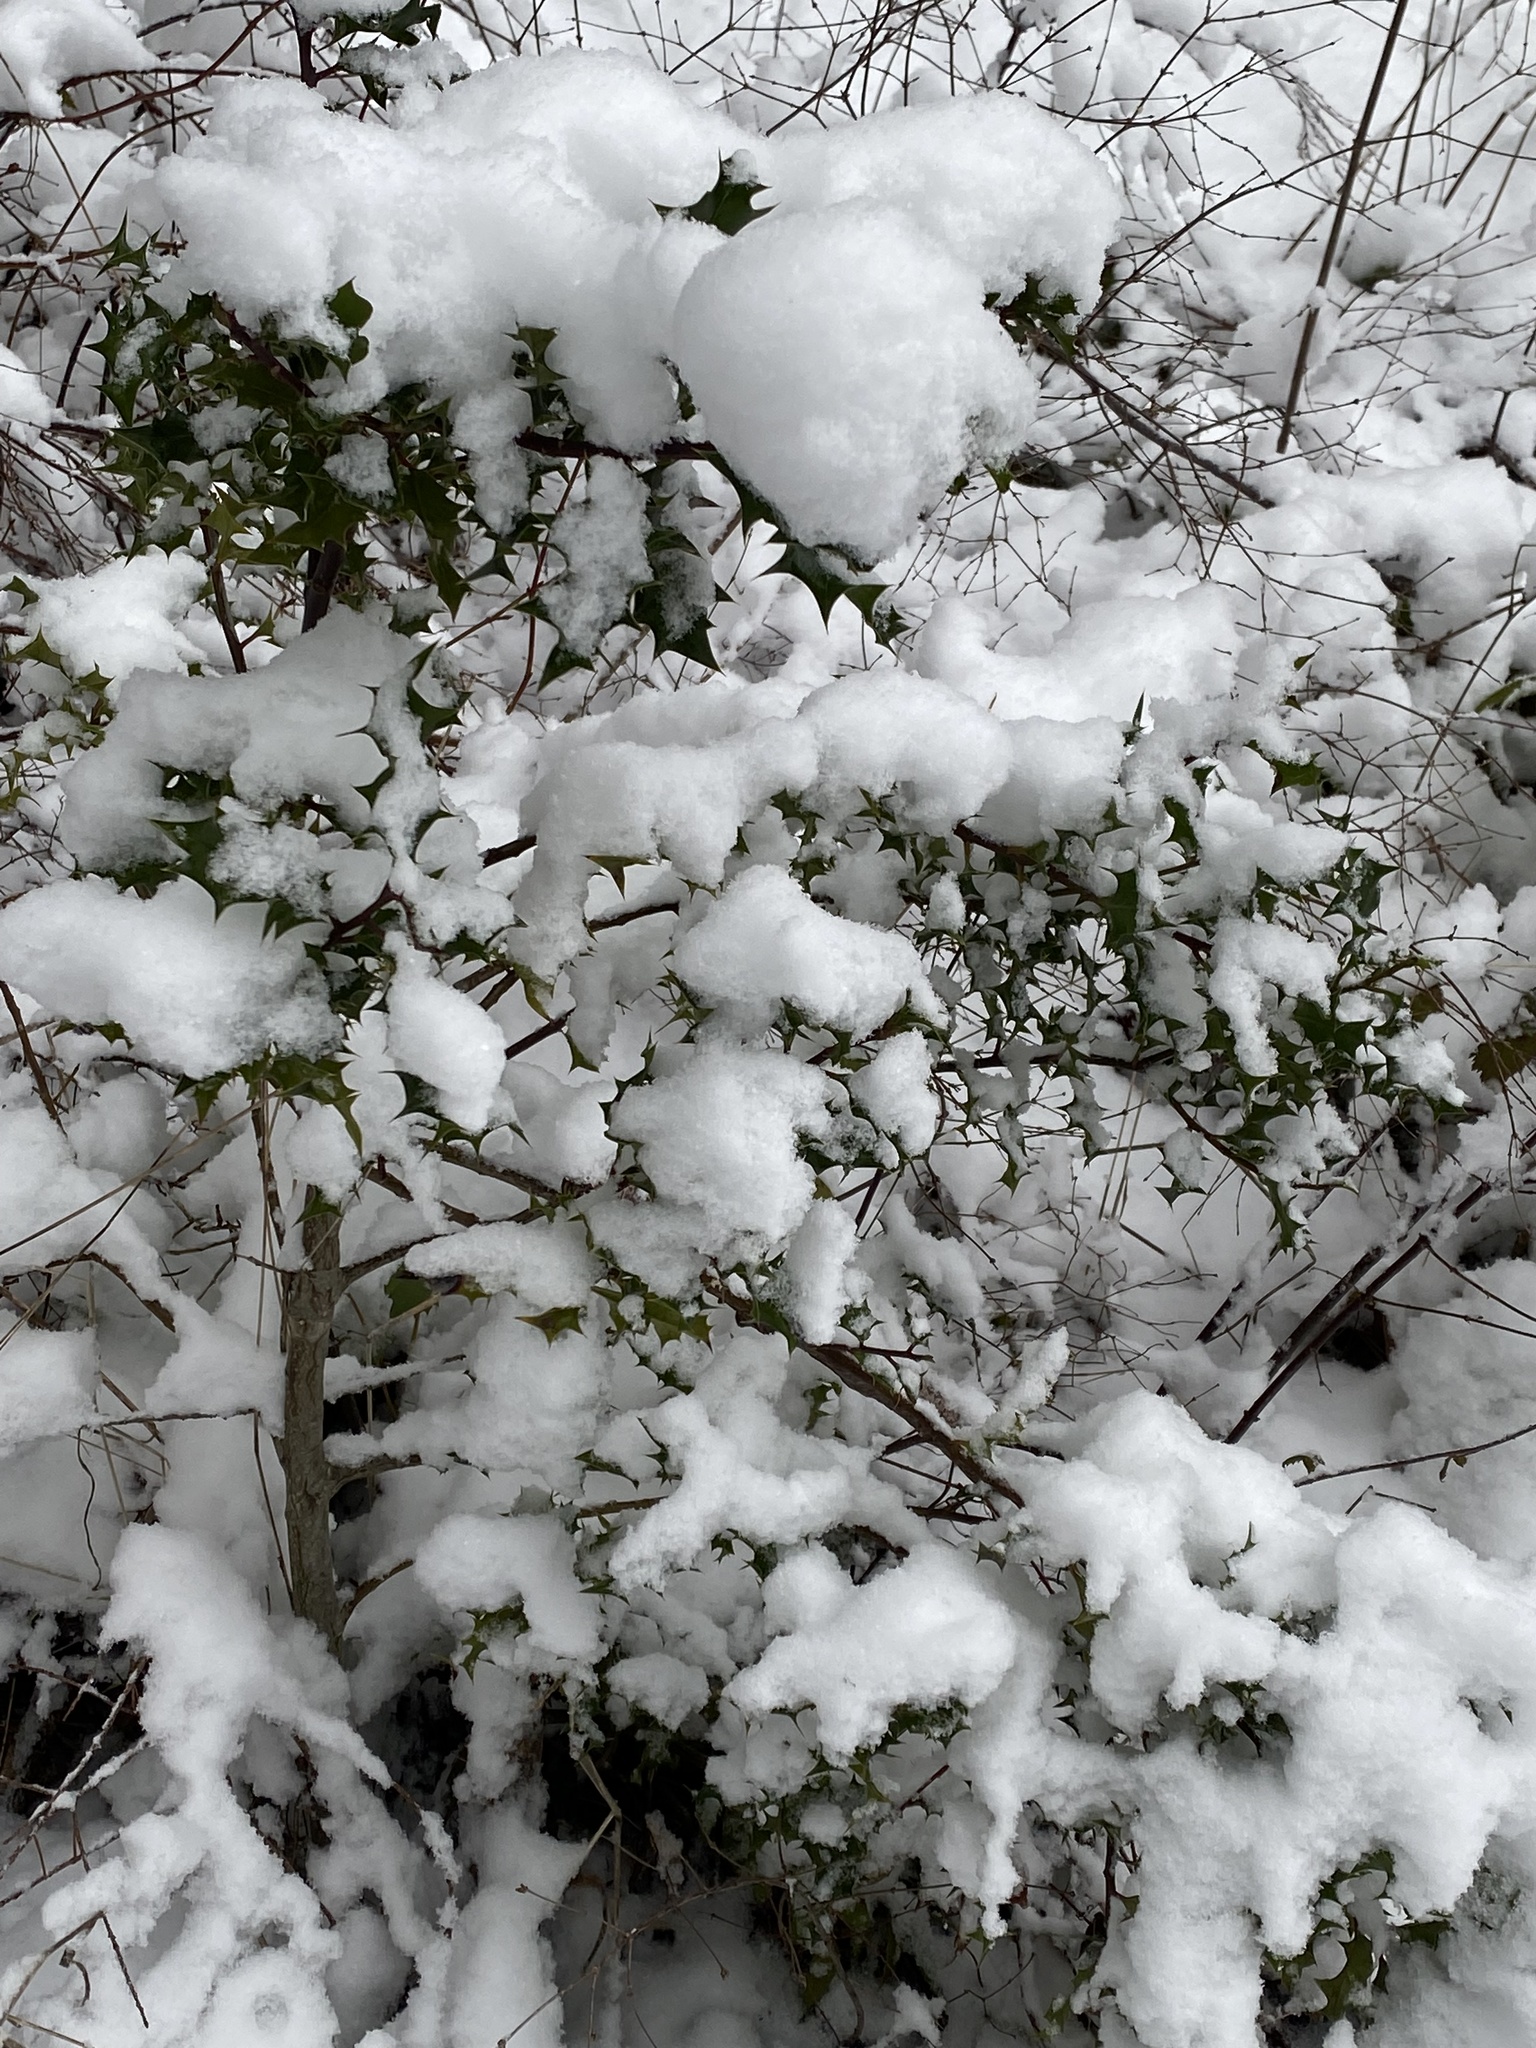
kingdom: Plantae
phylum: Tracheophyta
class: Magnoliopsida
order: Aquifoliales
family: Aquifoliaceae
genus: Ilex
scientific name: Ilex aquifolium
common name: English holly
